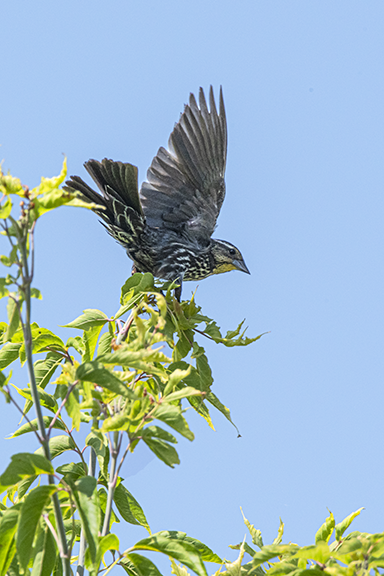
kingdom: Animalia
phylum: Chordata
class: Aves
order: Passeriformes
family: Icteridae
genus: Agelaius
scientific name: Agelaius phoeniceus
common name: Red-winged blackbird
